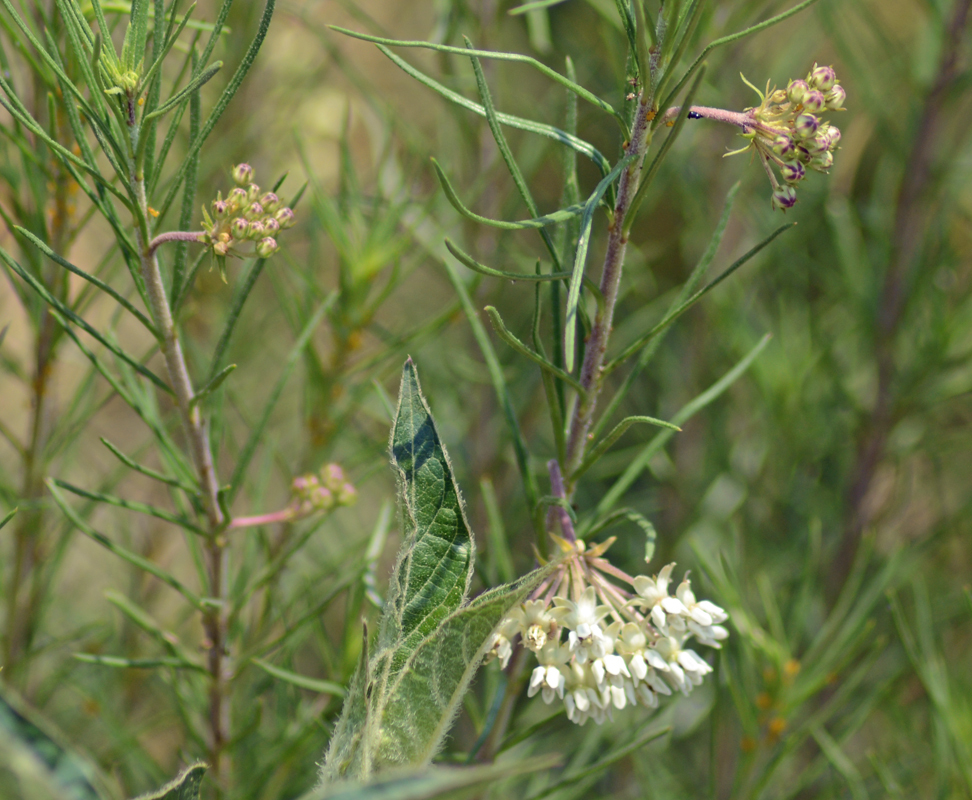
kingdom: Plantae
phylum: Tracheophyta
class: Magnoliopsida
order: Gentianales
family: Apocynaceae
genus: Asclepias
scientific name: Asclepias linaria
